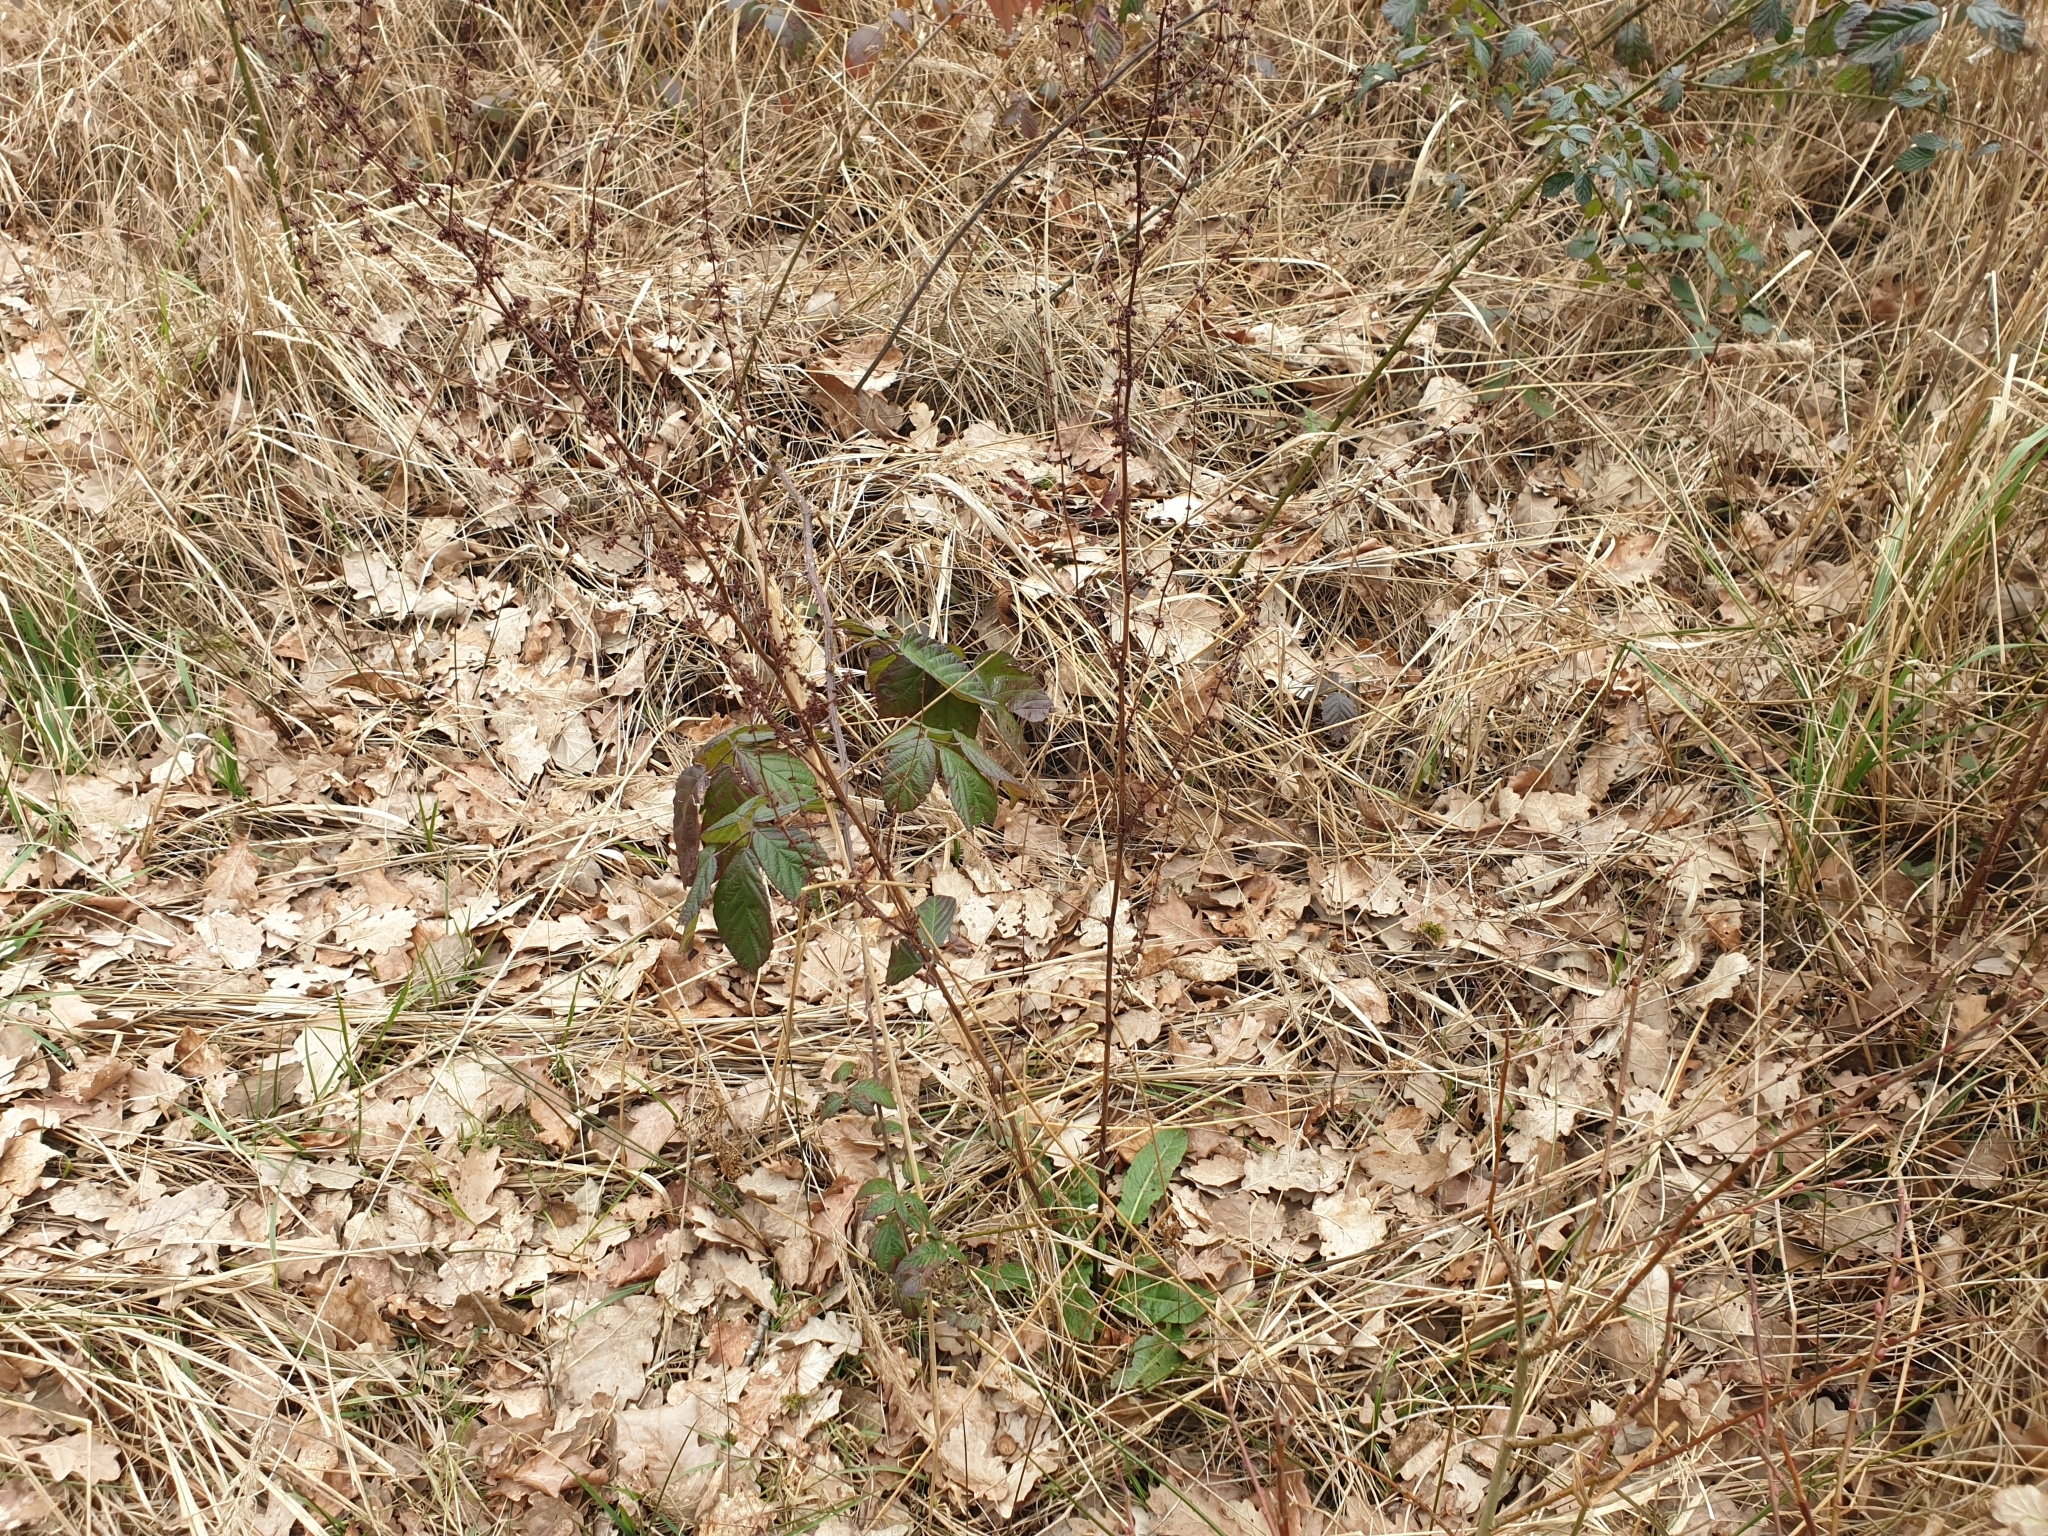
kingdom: Plantae
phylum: Tracheophyta
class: Magnoliopsida
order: Caryophyllales
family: Polygonaceae
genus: Rumex
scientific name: Rumex sanguineus
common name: Wood dock
